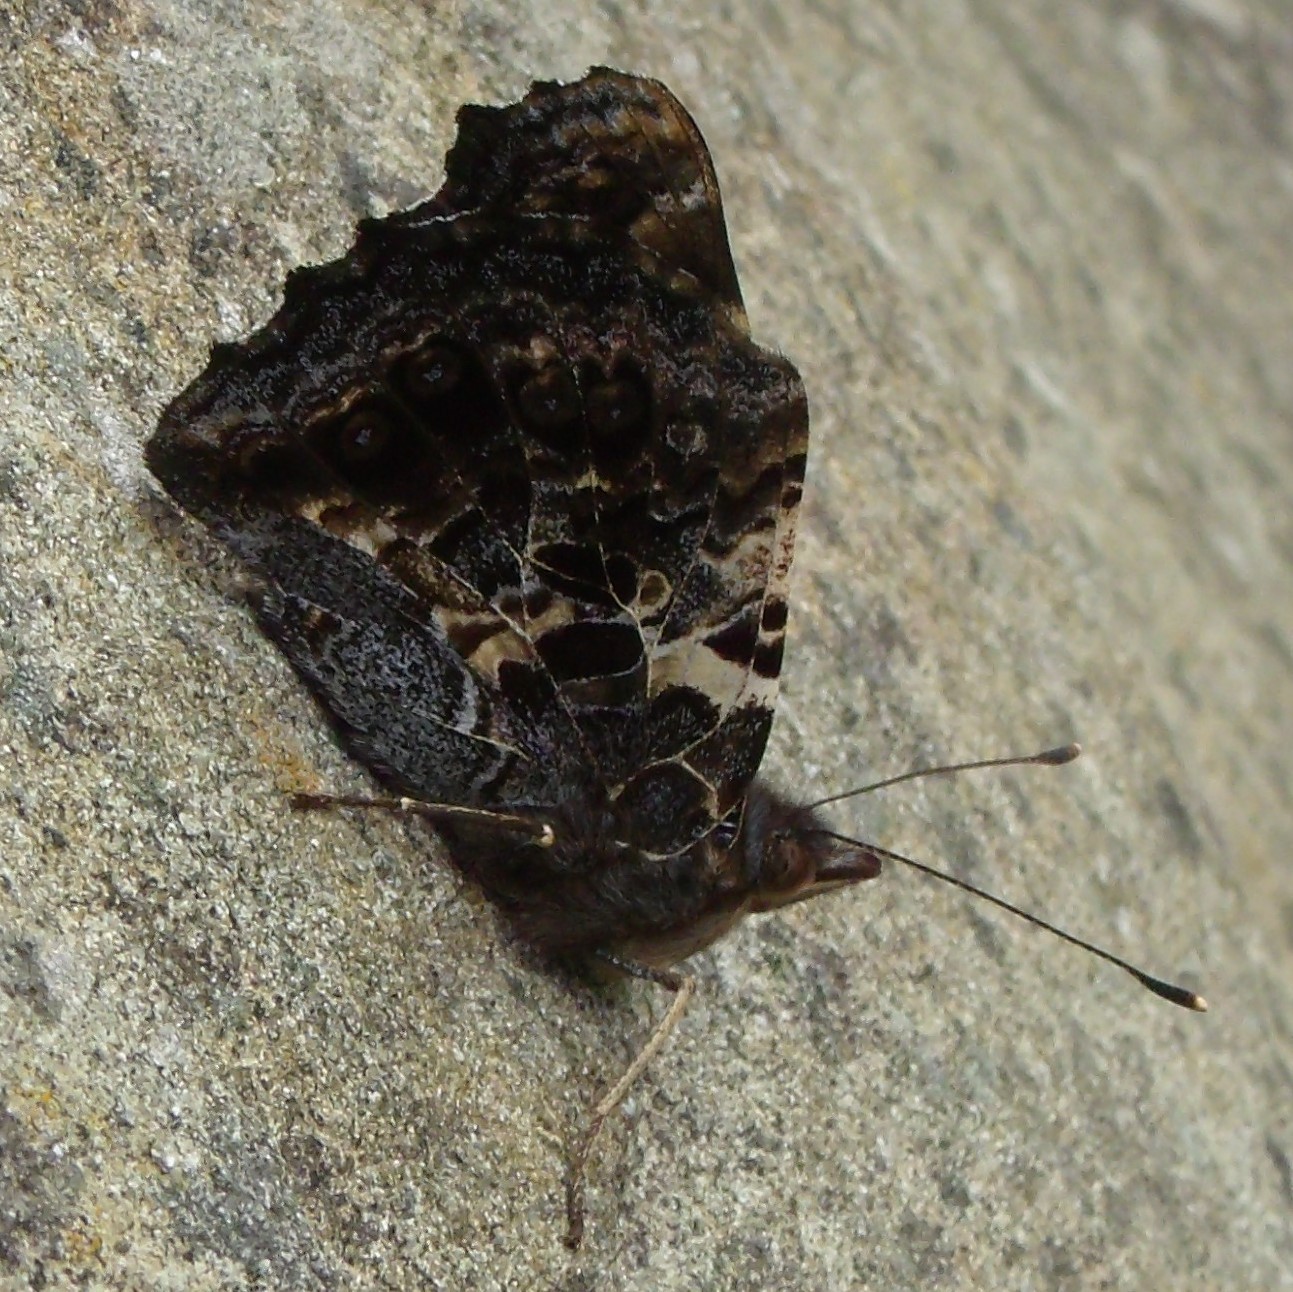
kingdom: Animalia
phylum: Arthropoda
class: Insecta
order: Lepidoptera
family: Nymphalidae
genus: Vanessa
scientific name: Vanessa gonerilla
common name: New zealand red admiral
